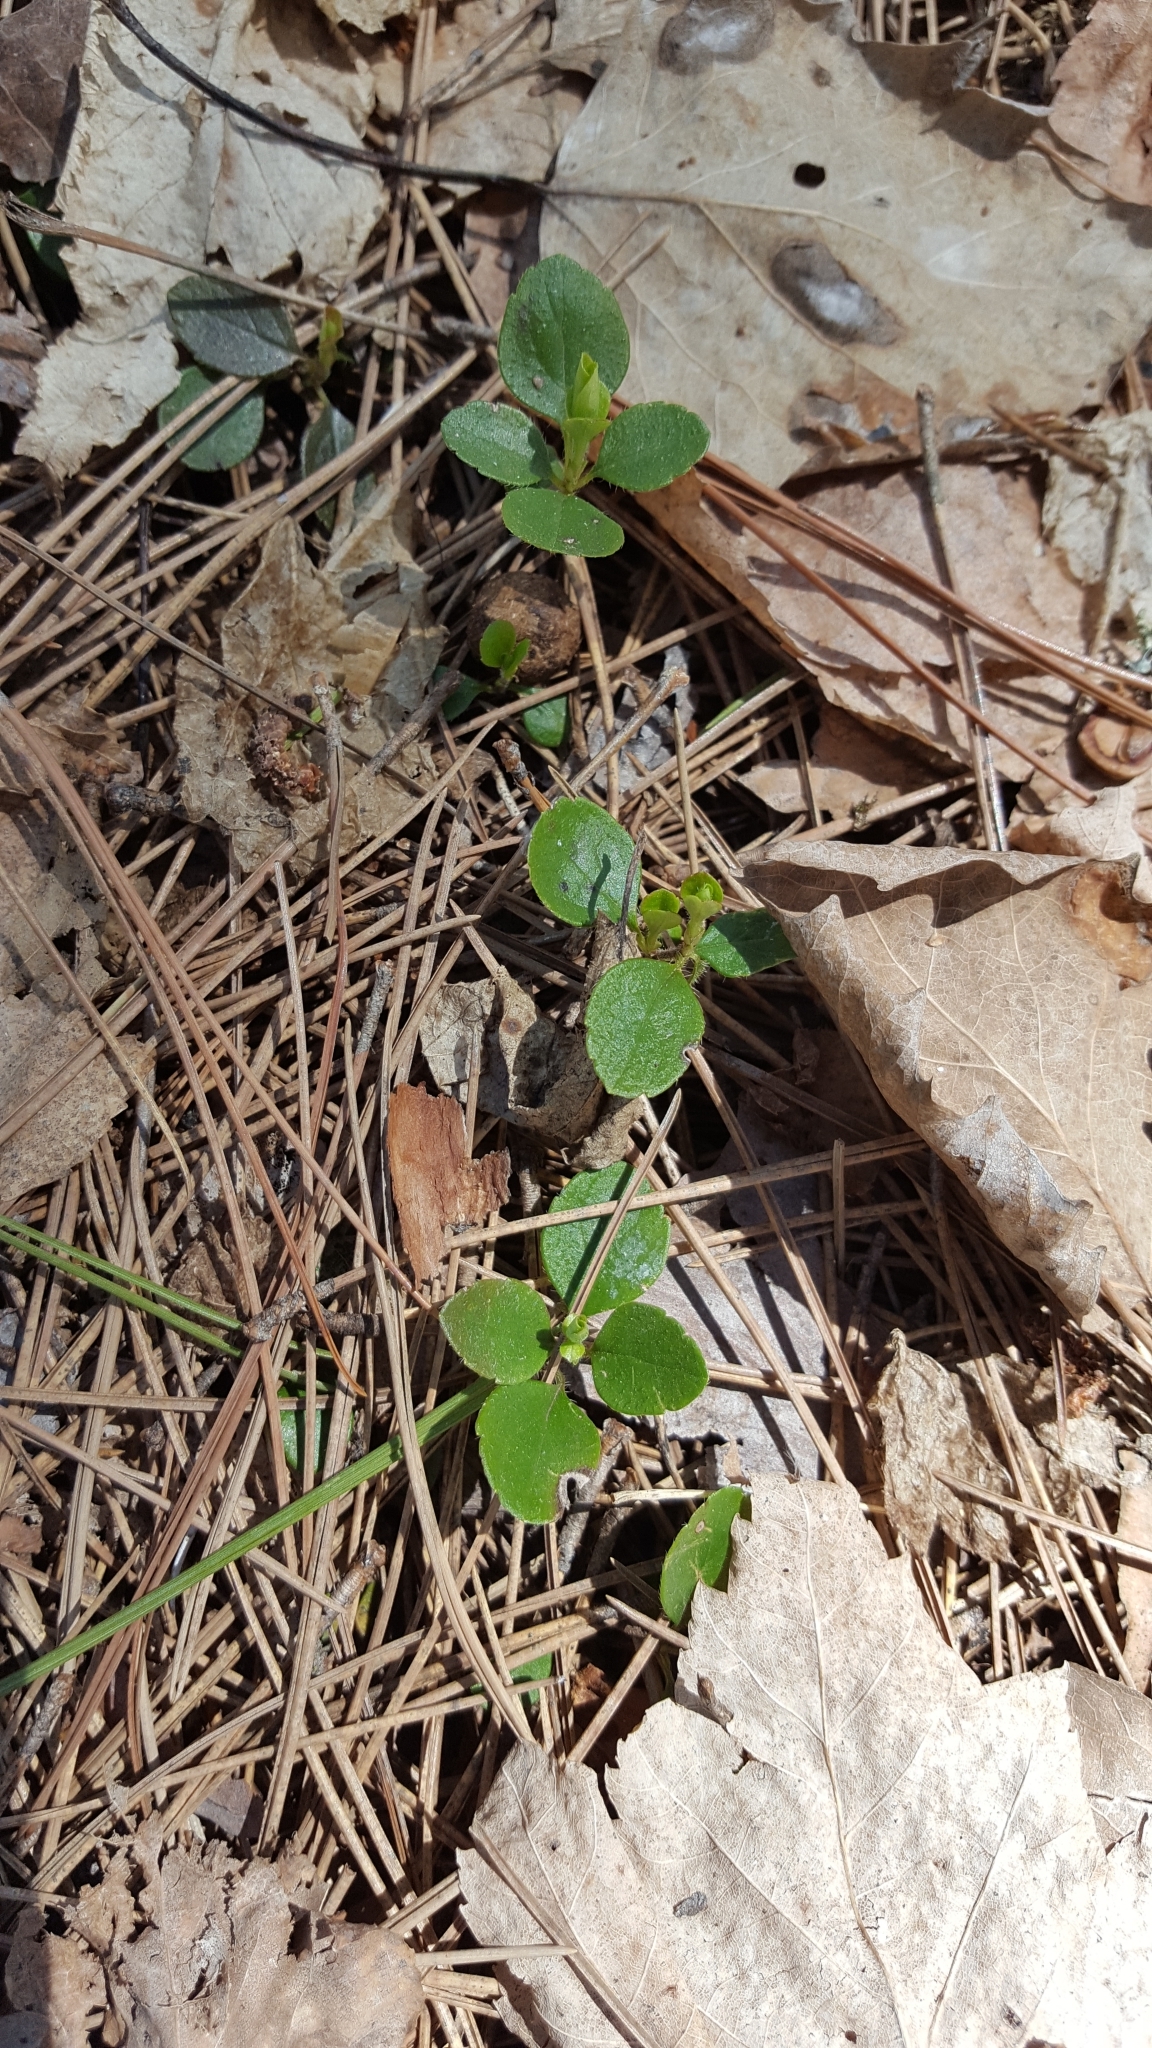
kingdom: Plantae
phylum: Tracheophyta
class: Magnoliopsida
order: Dipsacales
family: Caprifoliaceae
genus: Linnaea
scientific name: Linnaea borealis
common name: Twinflower
